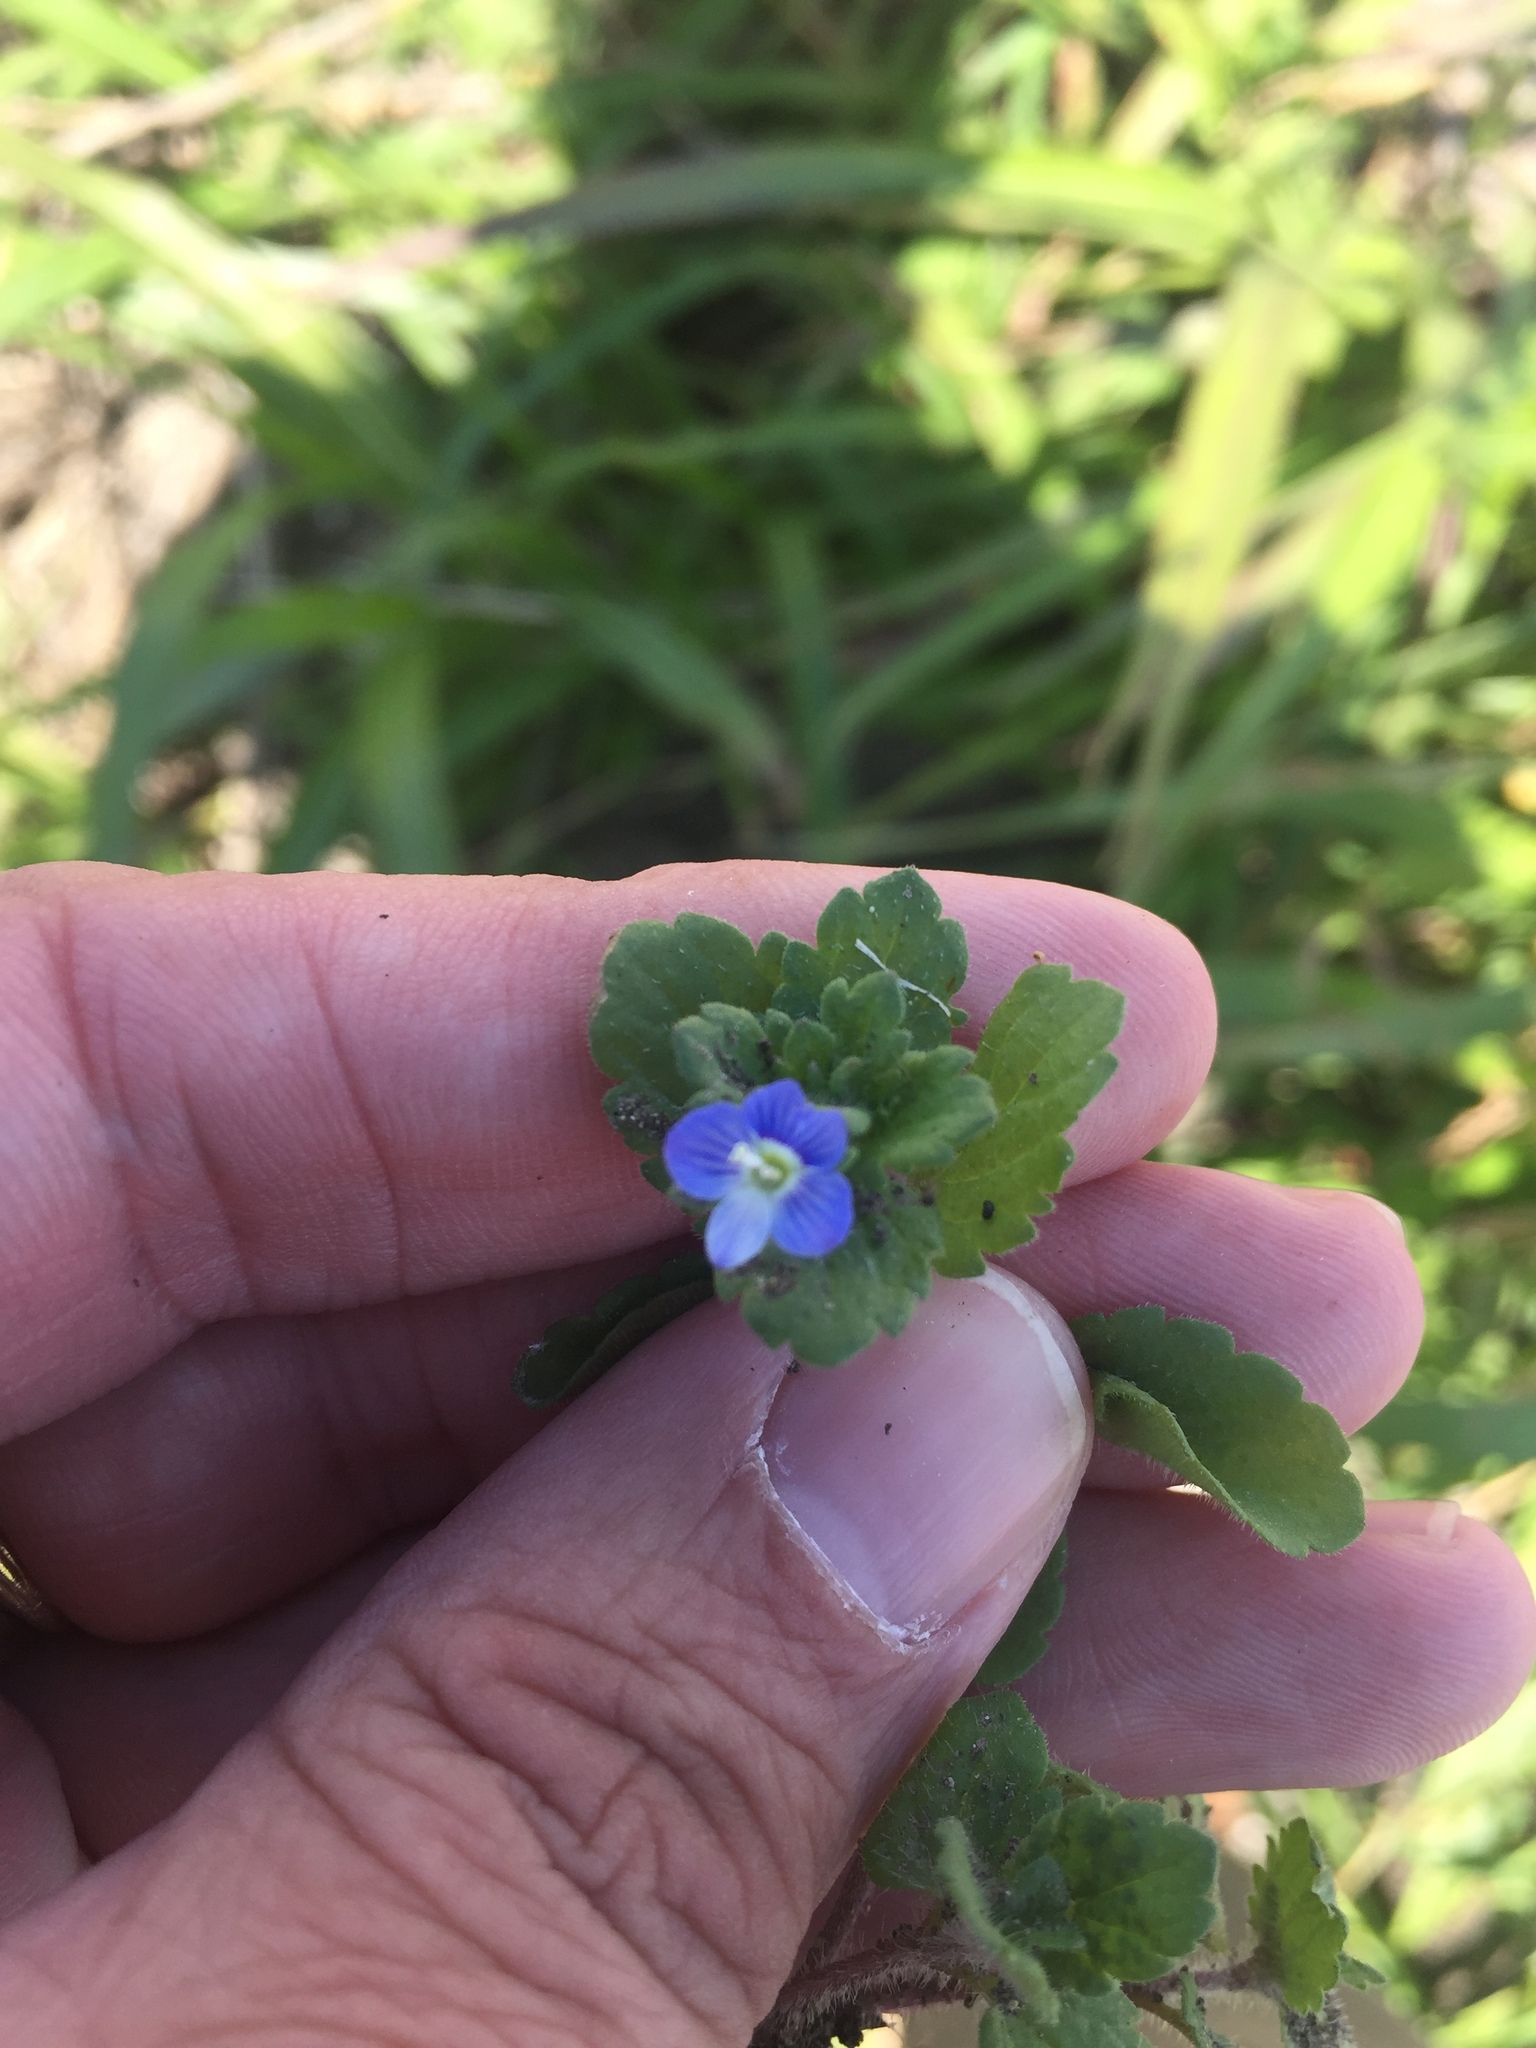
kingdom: Plantae
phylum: Tracheophyta
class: Magnoliopsida
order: Lamiales
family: Plantaginaceae
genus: Veronica
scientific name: Veronica persica
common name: Common field-speedwell
